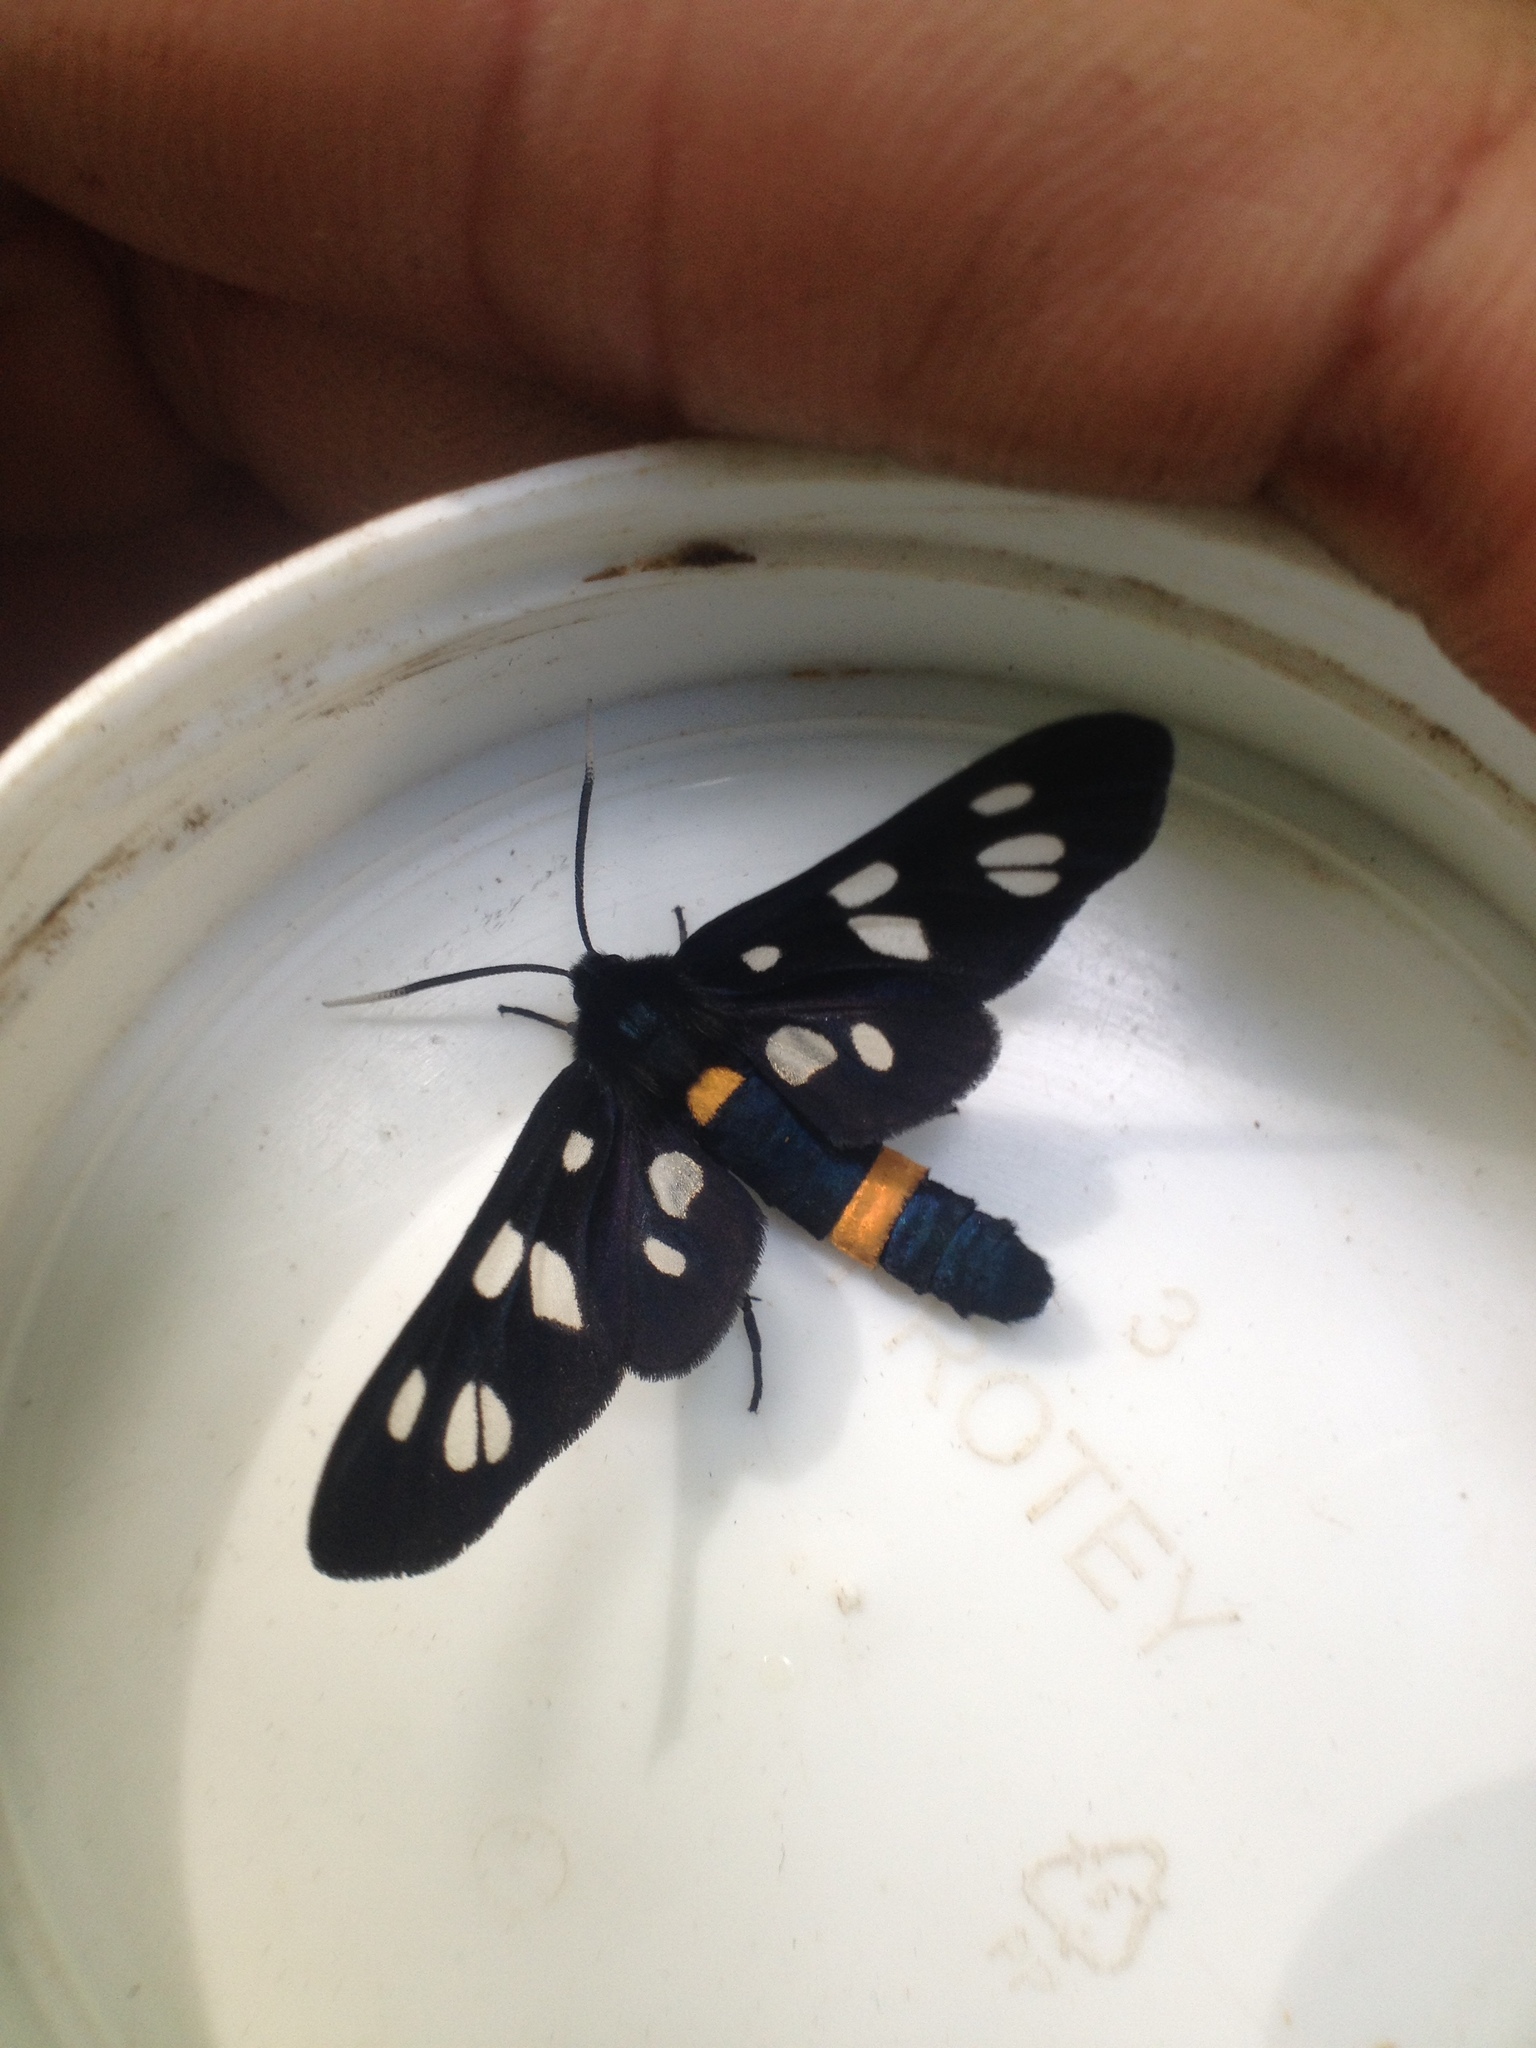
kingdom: Animalia
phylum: Arthropoda
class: Insecta
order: Lepidoptera
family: Erebidae
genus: Amata
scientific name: Amata nigricornis
